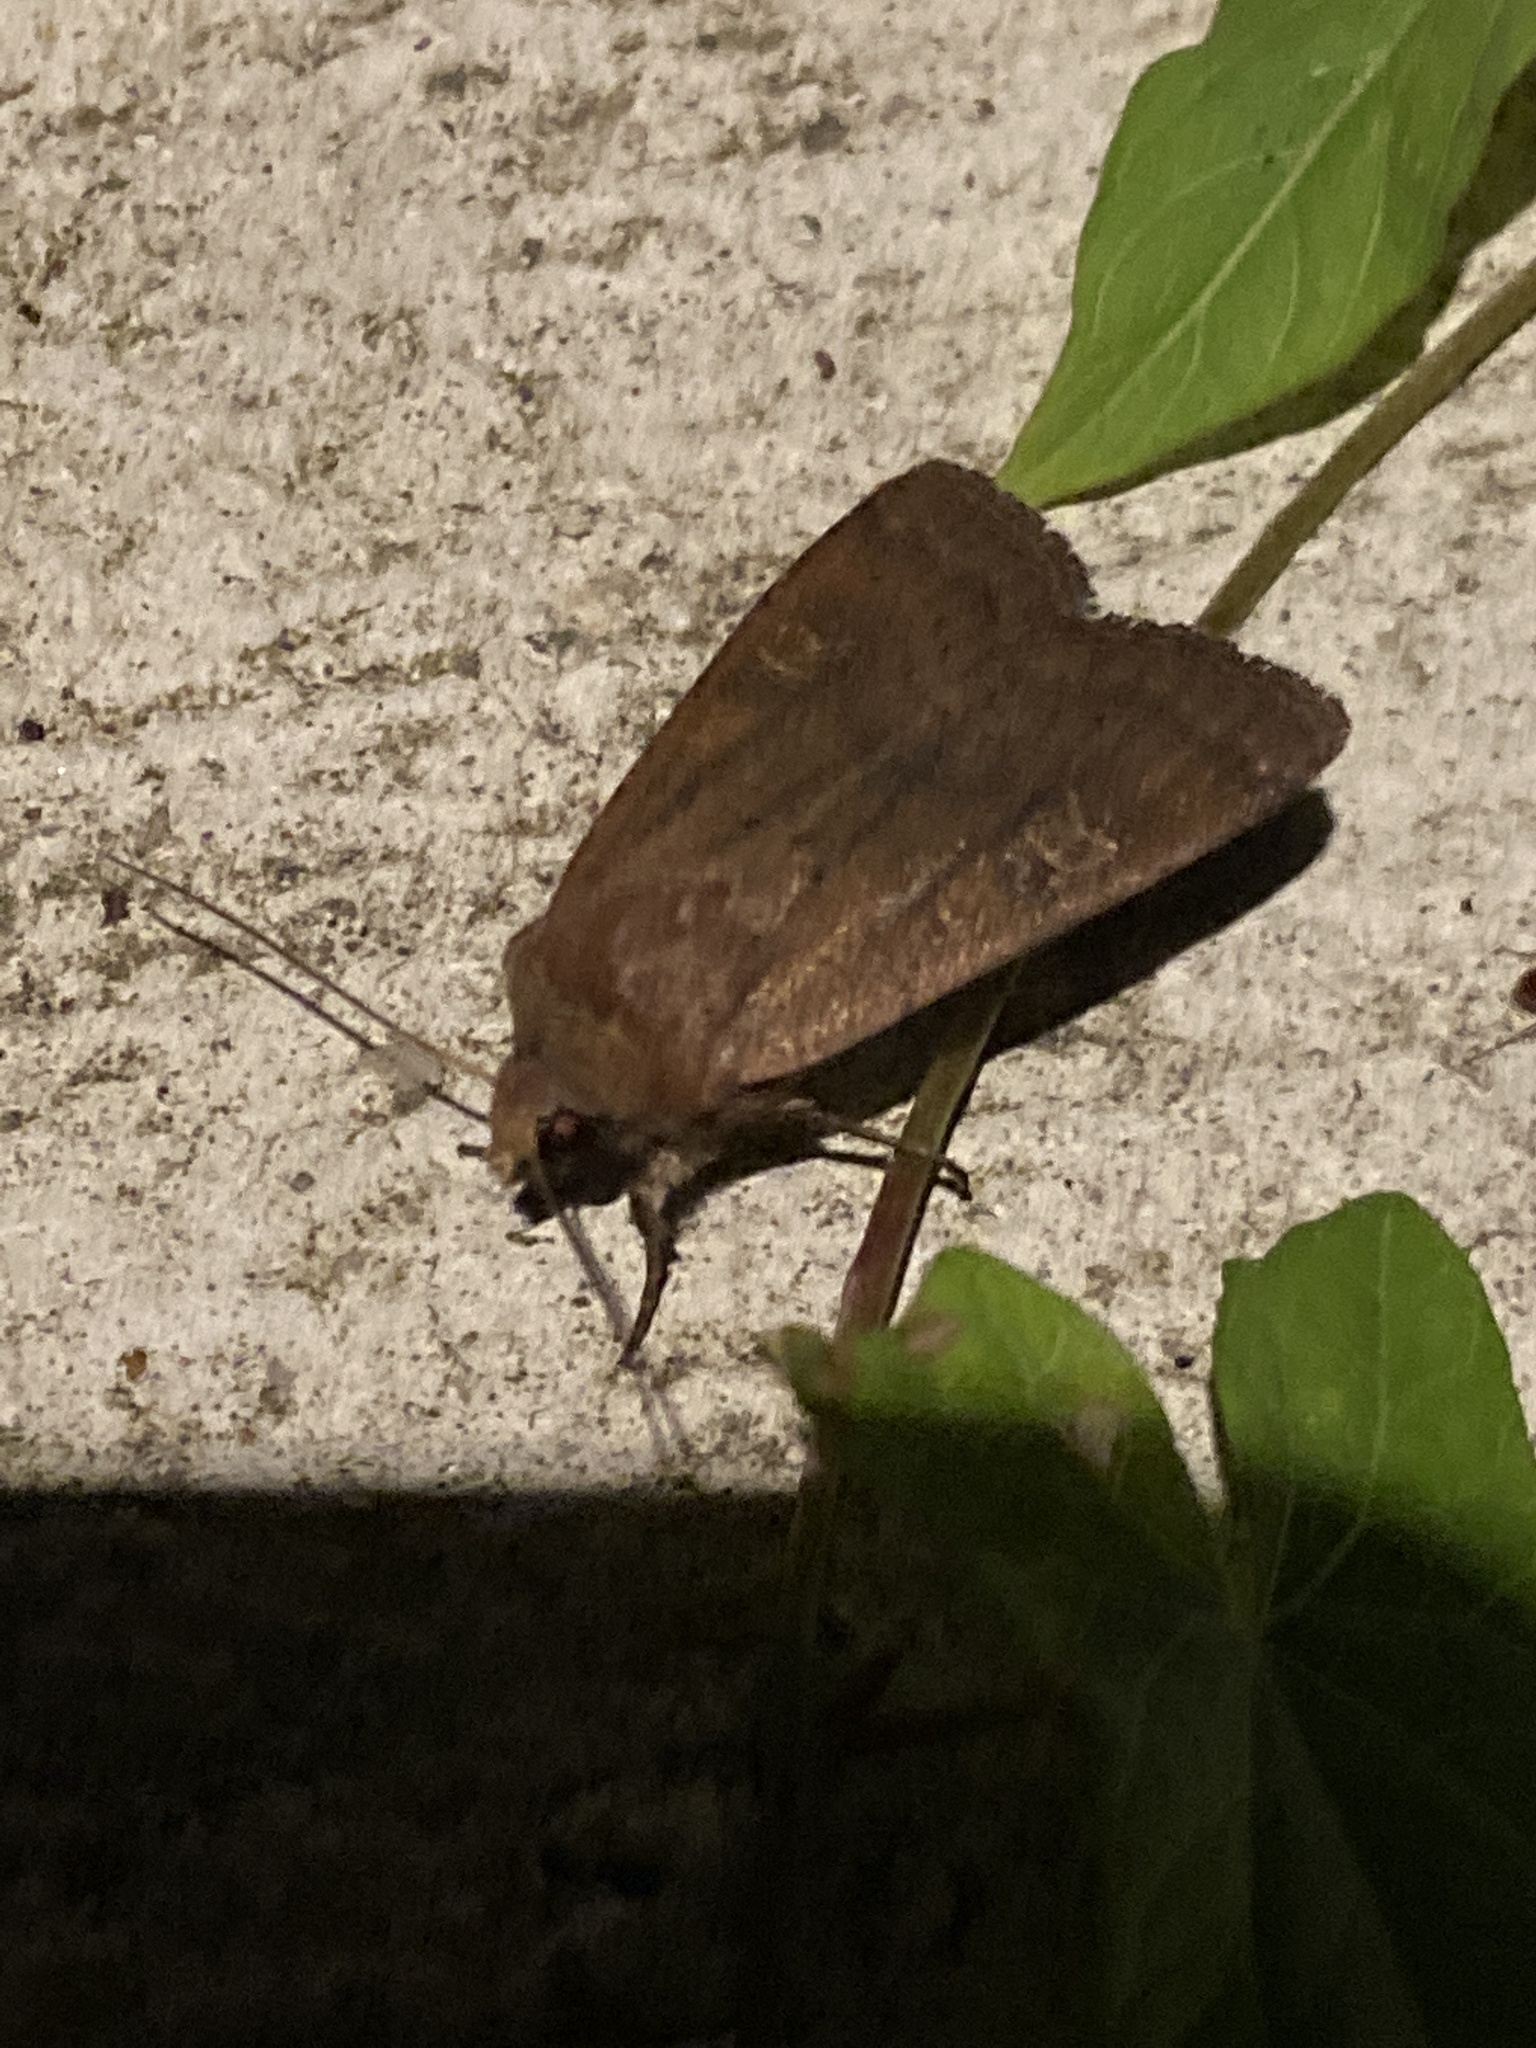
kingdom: Animalia
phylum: Arthropoda
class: Insecta
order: Lepidoptera
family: Noctuidae
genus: Xestia
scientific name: Xestia xanthographa
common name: Square-spot rustic
